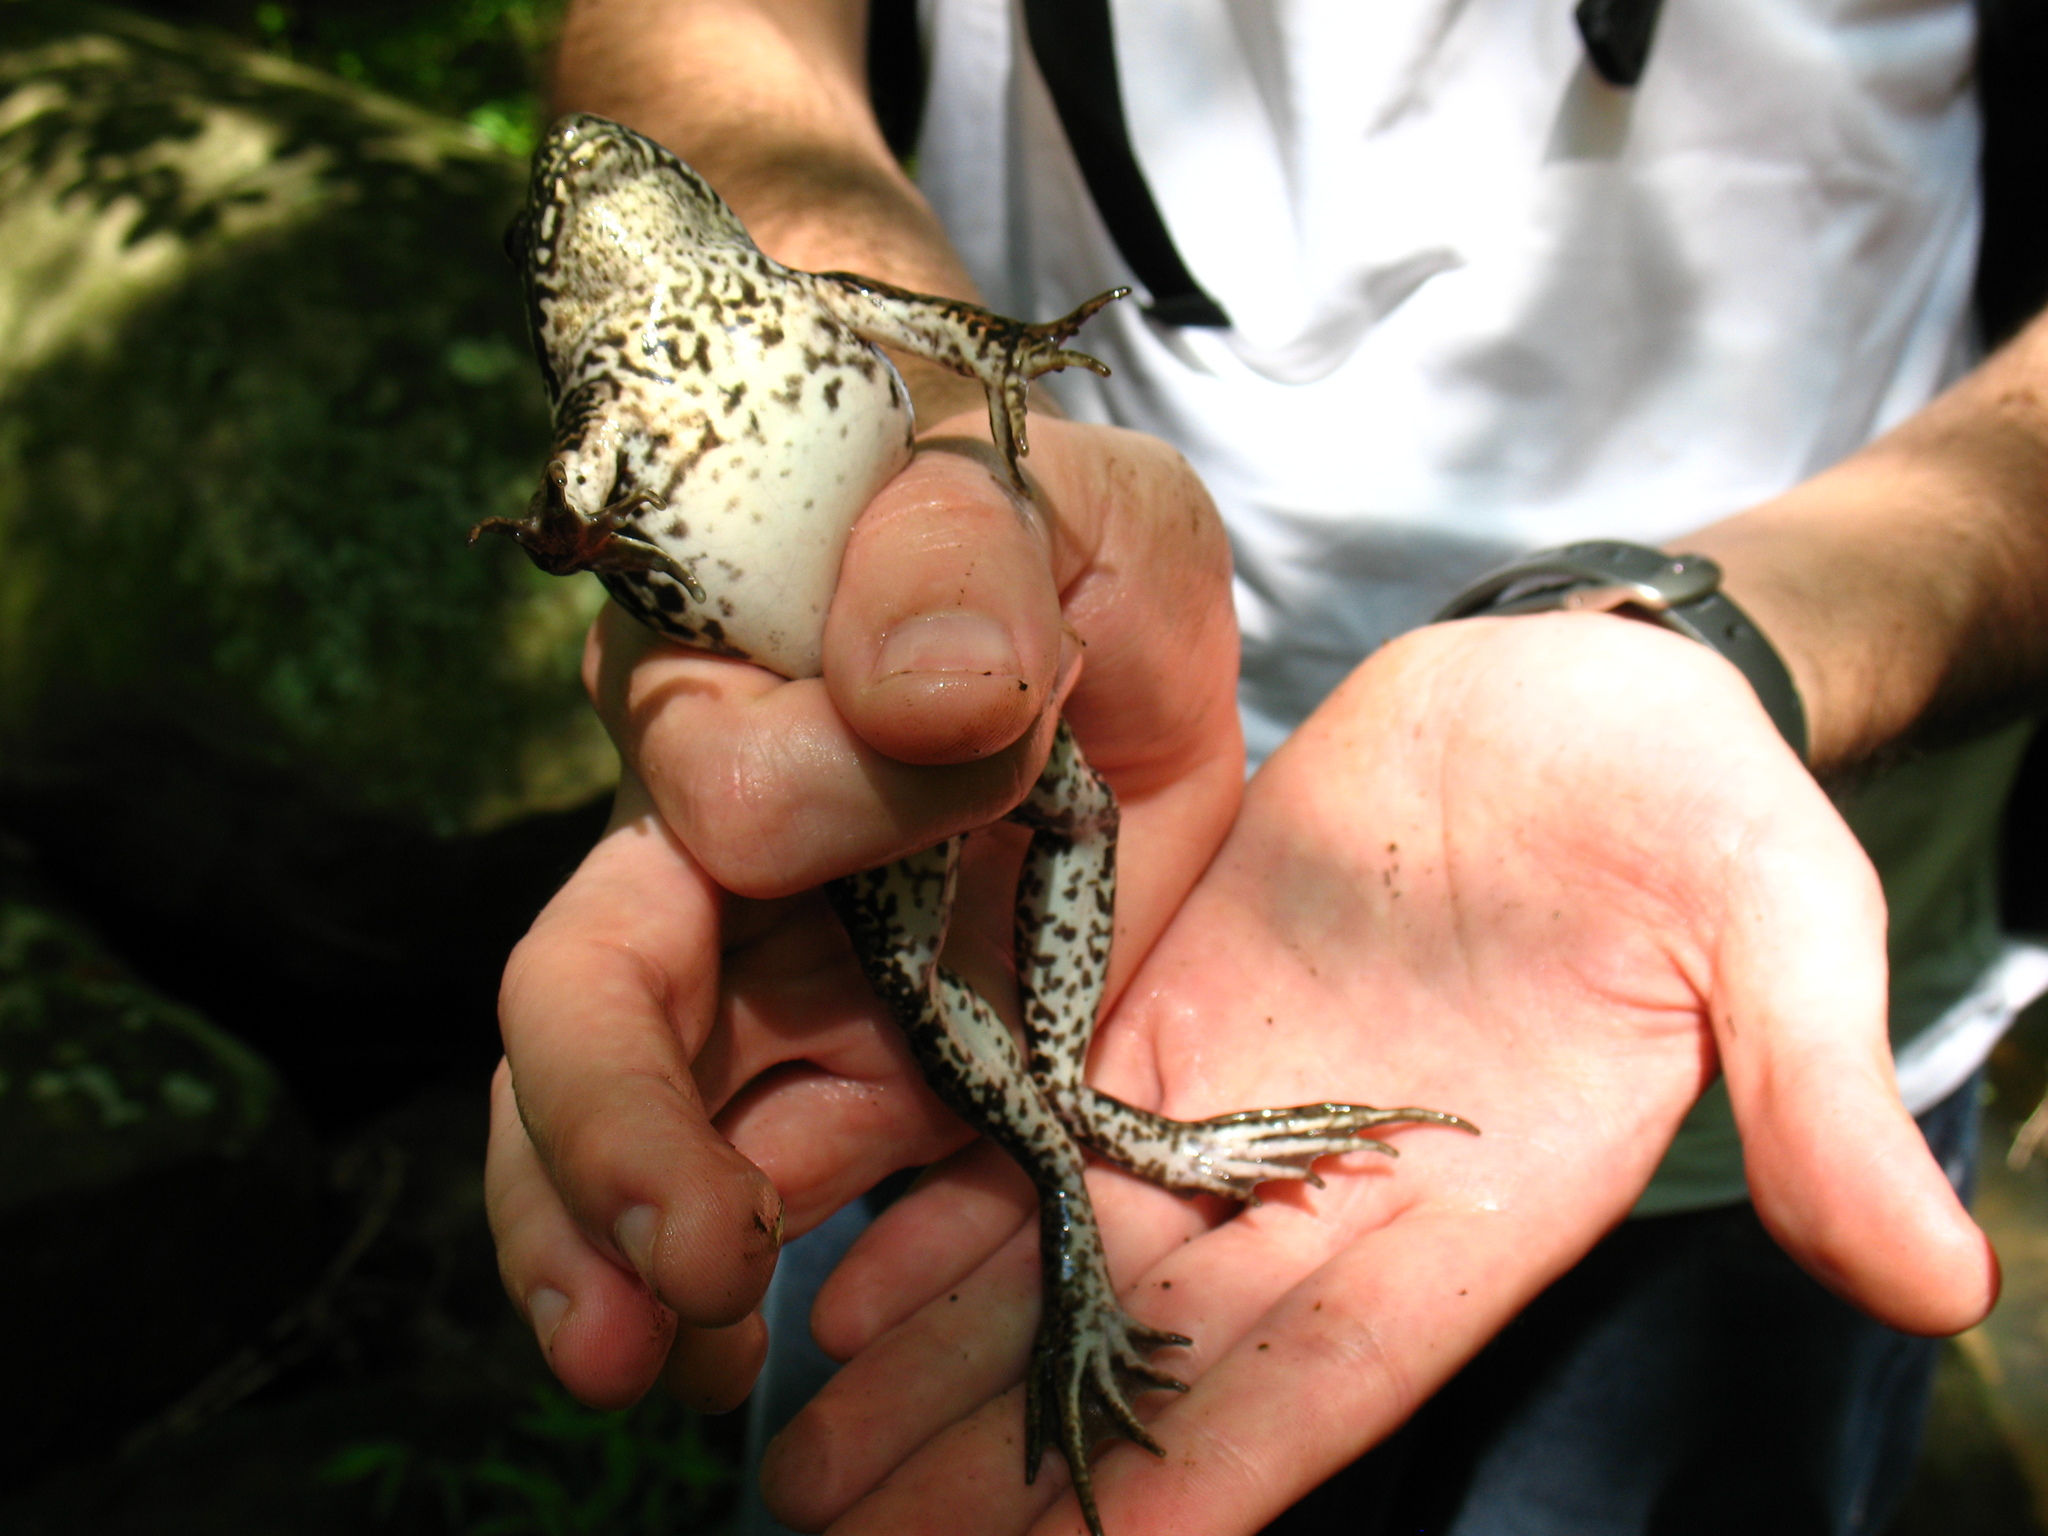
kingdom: Animalia
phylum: Chordata
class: Amphibia
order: Anura
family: Ranidae
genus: Lithobates
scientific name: Lithobates clamitans
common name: Green frog
